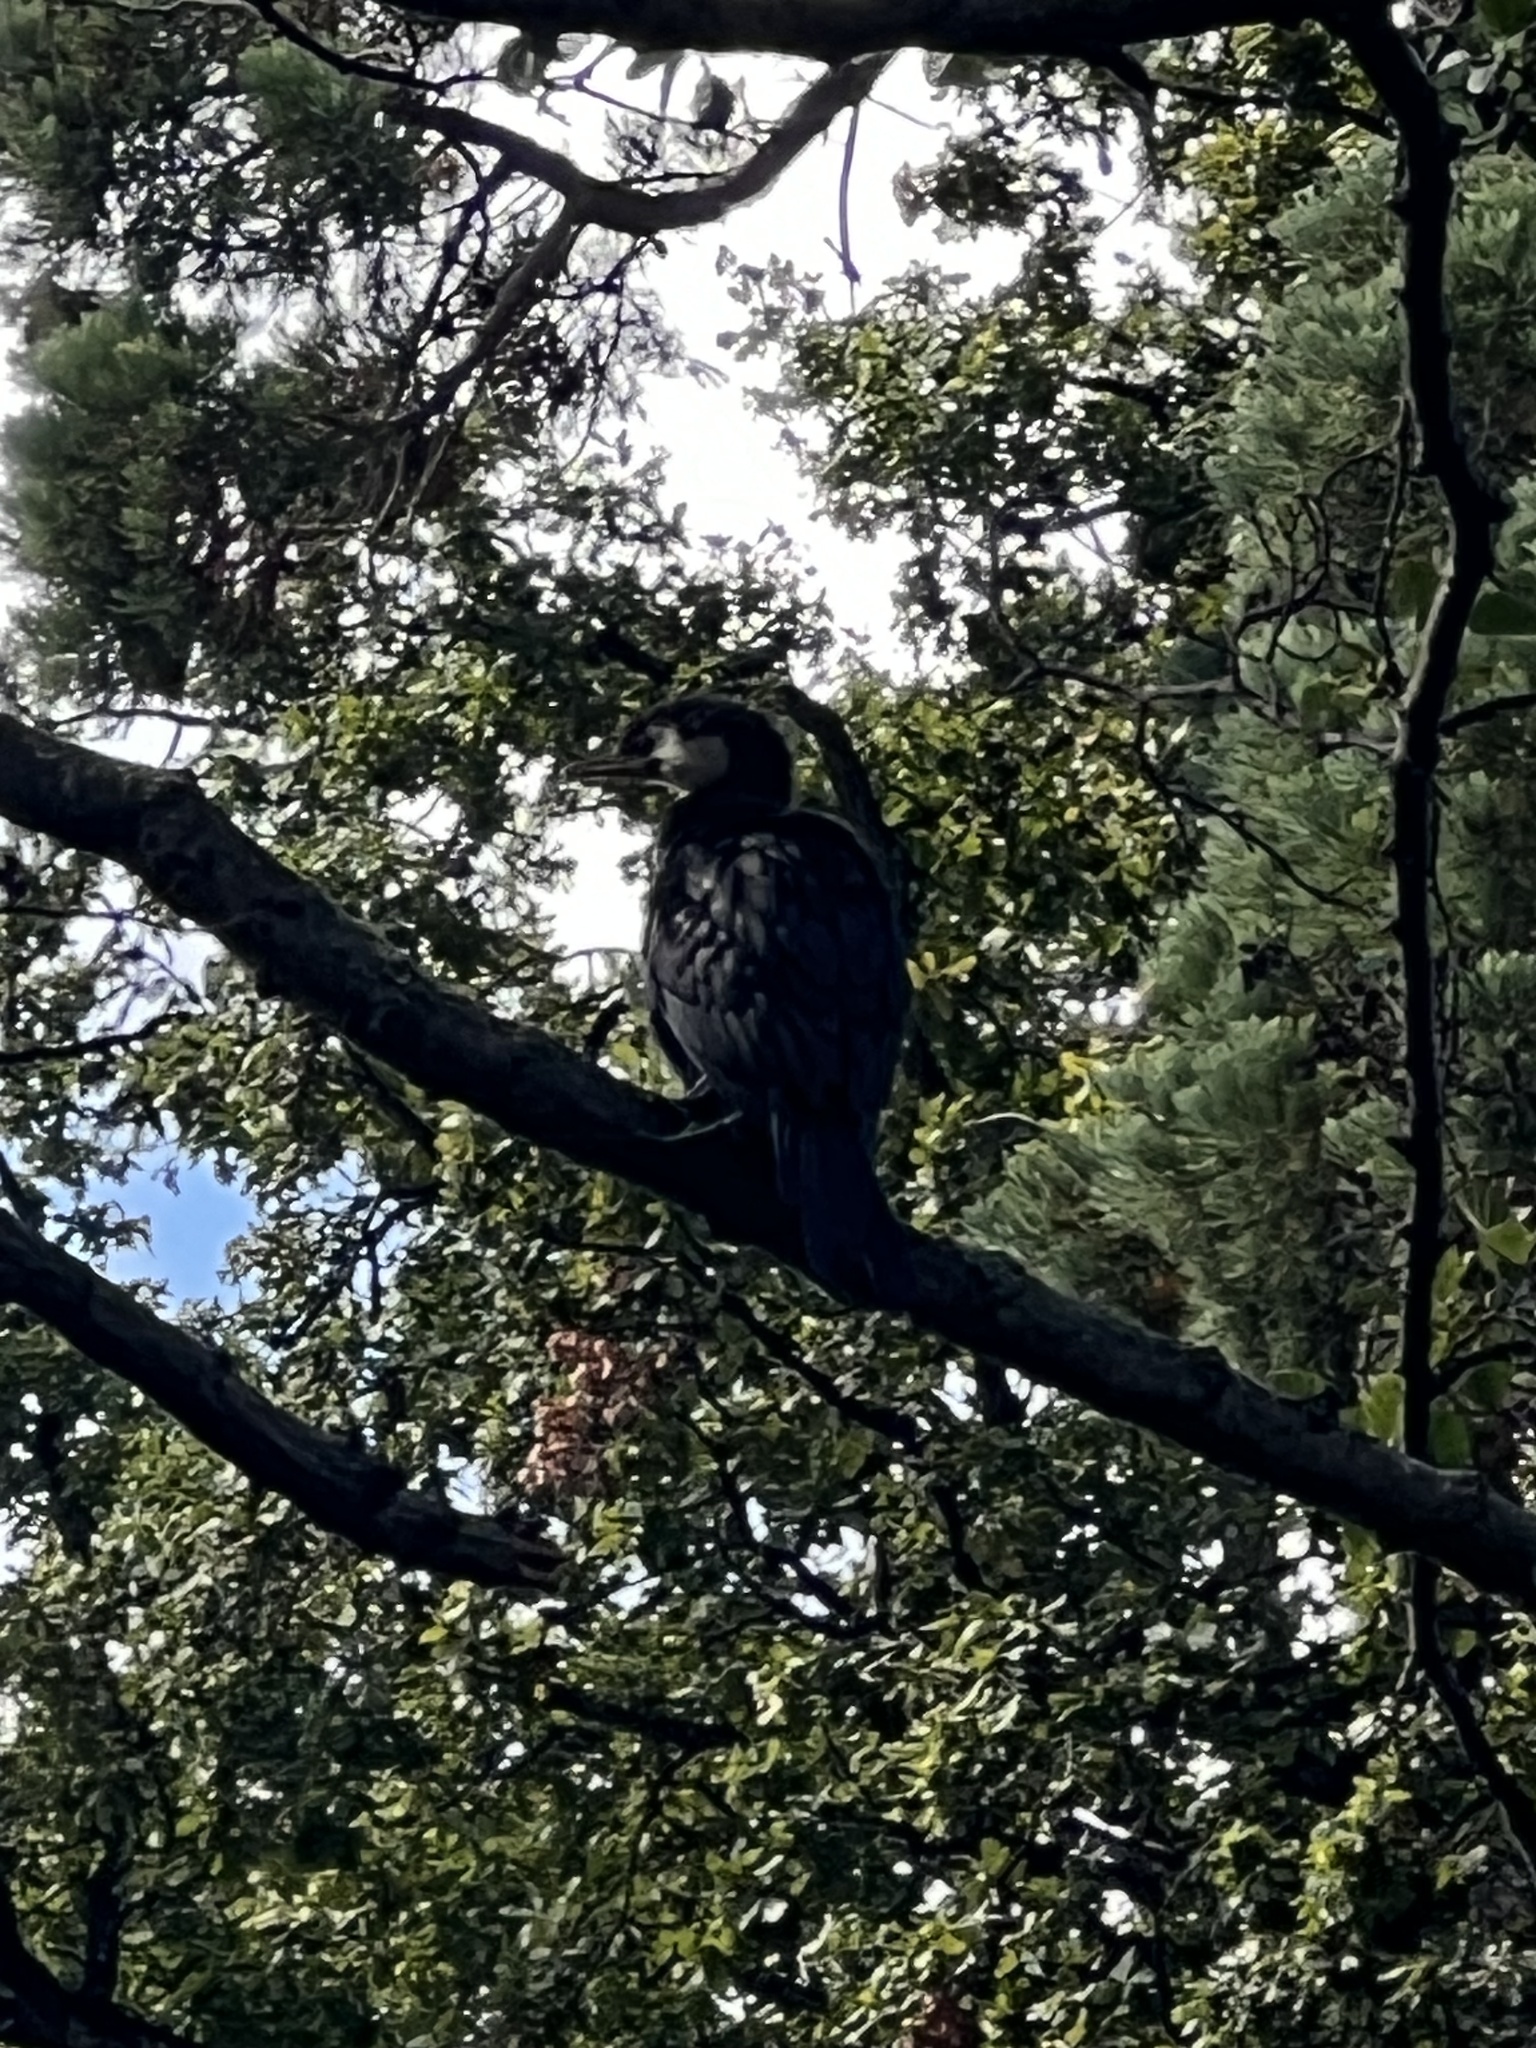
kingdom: Animalia
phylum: Chordata
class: Aves
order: Suliformes
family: Phalacrocoracidae
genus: Microcarbo
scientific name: Microcarbo melanoleucos
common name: Little pied cormorant
